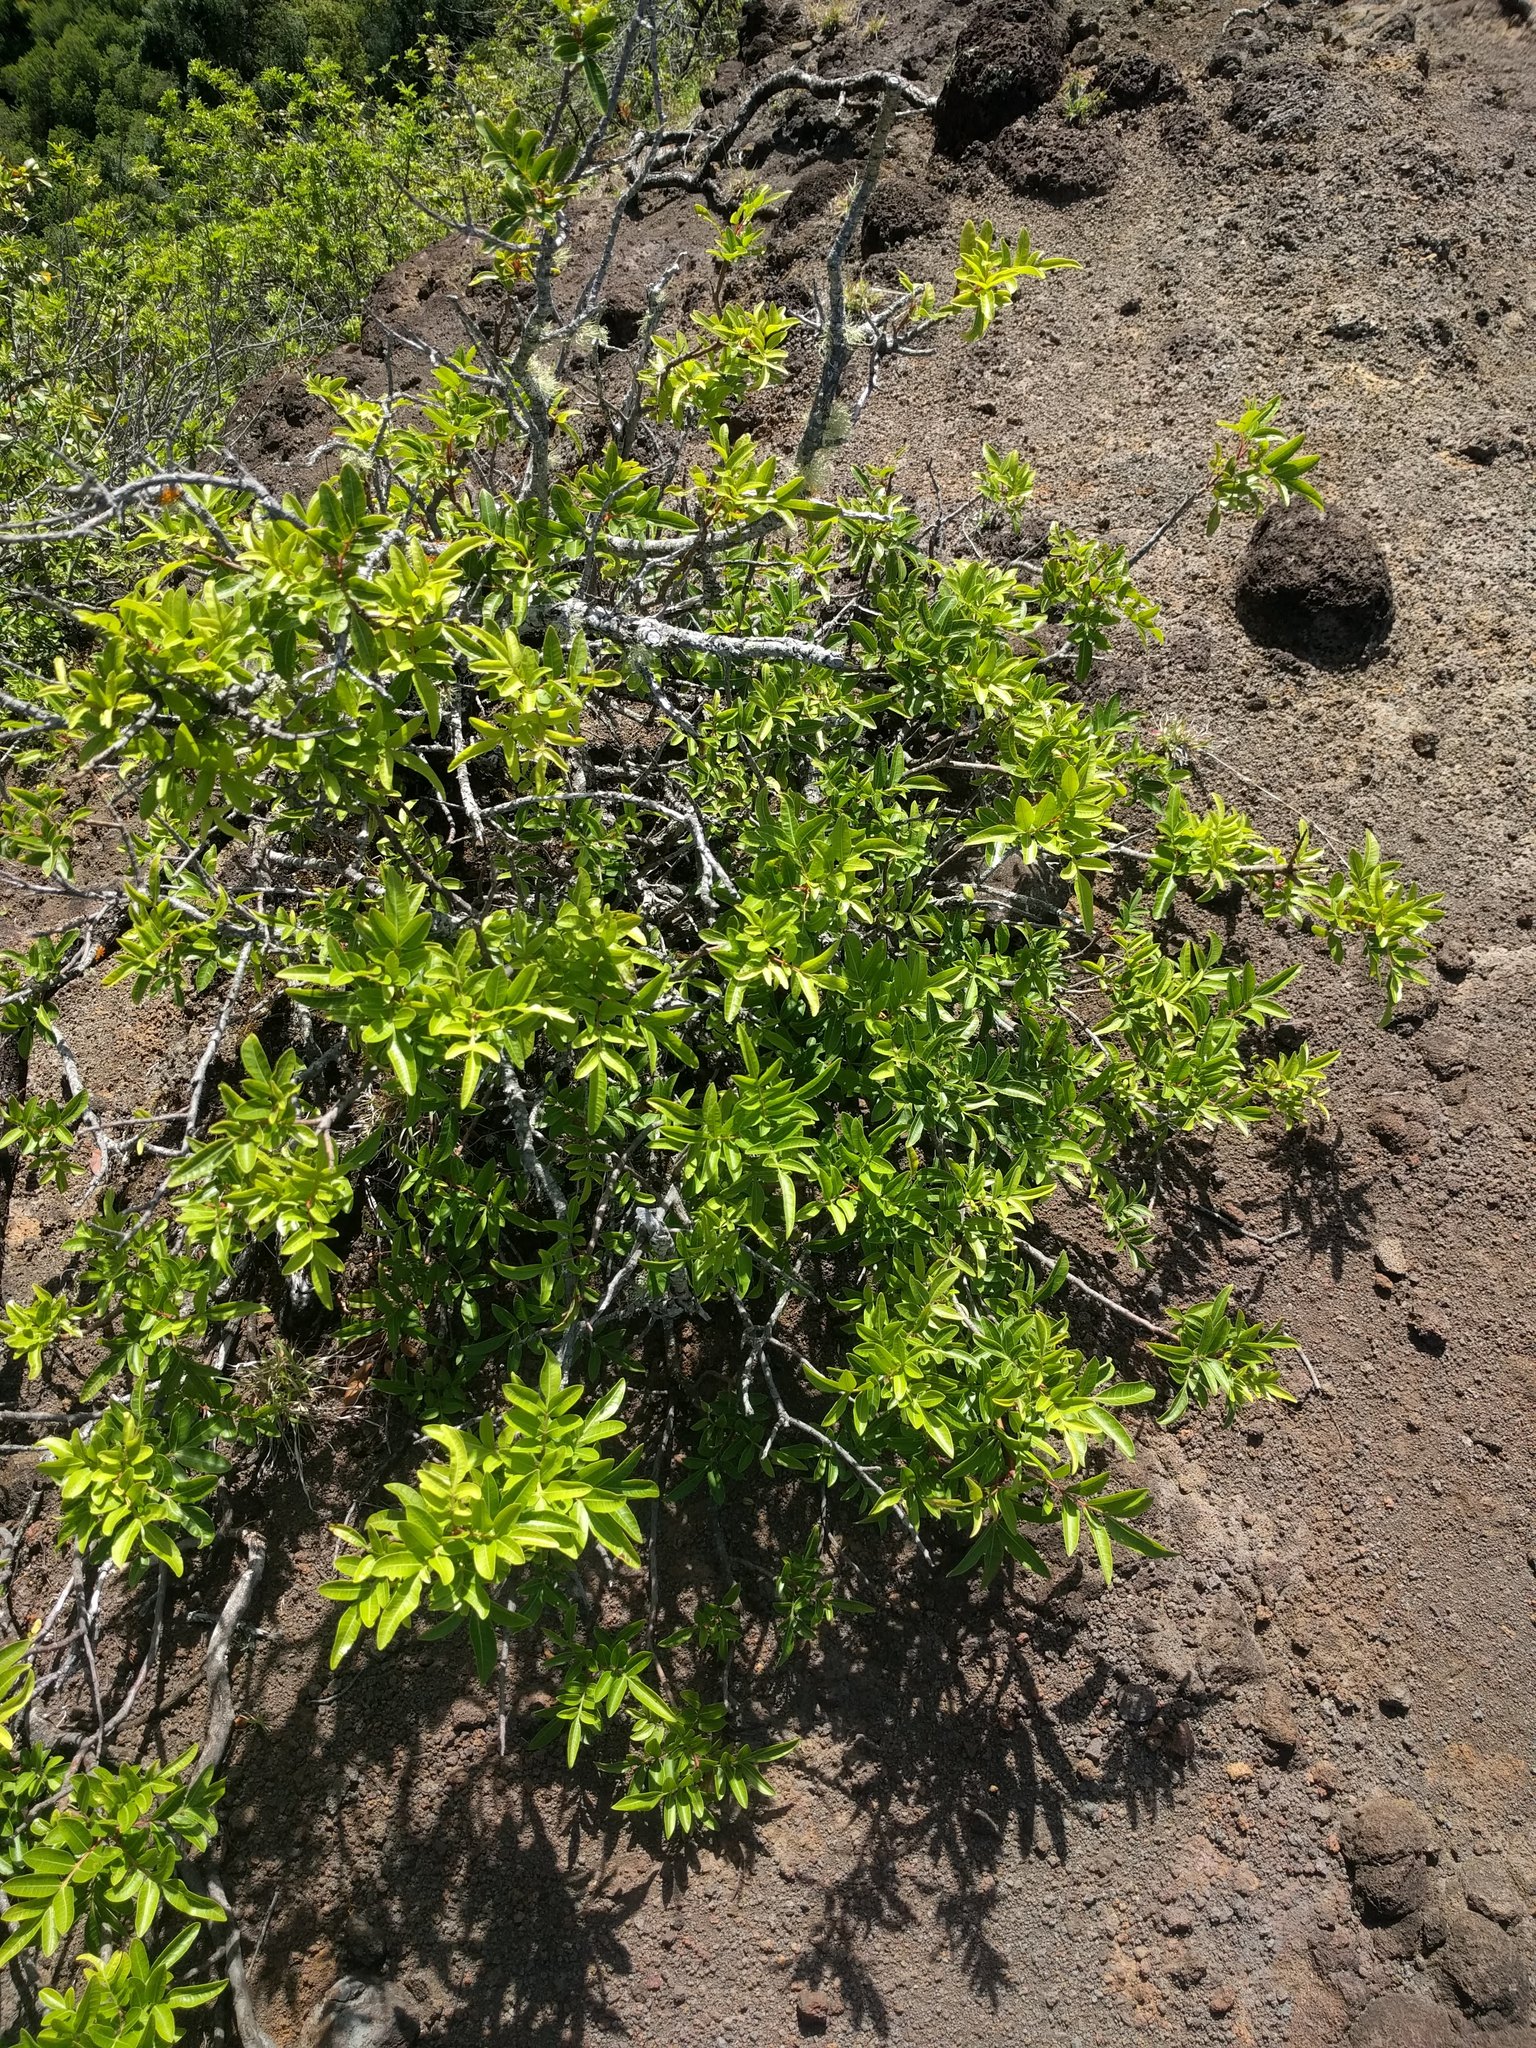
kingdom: Plantae
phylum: Tracheophyta
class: Magnoliopsida
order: Sapindales
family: Anacardiaceae
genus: Schinus
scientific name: Schinus terebinthifolia
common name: Brazilian peppertree
